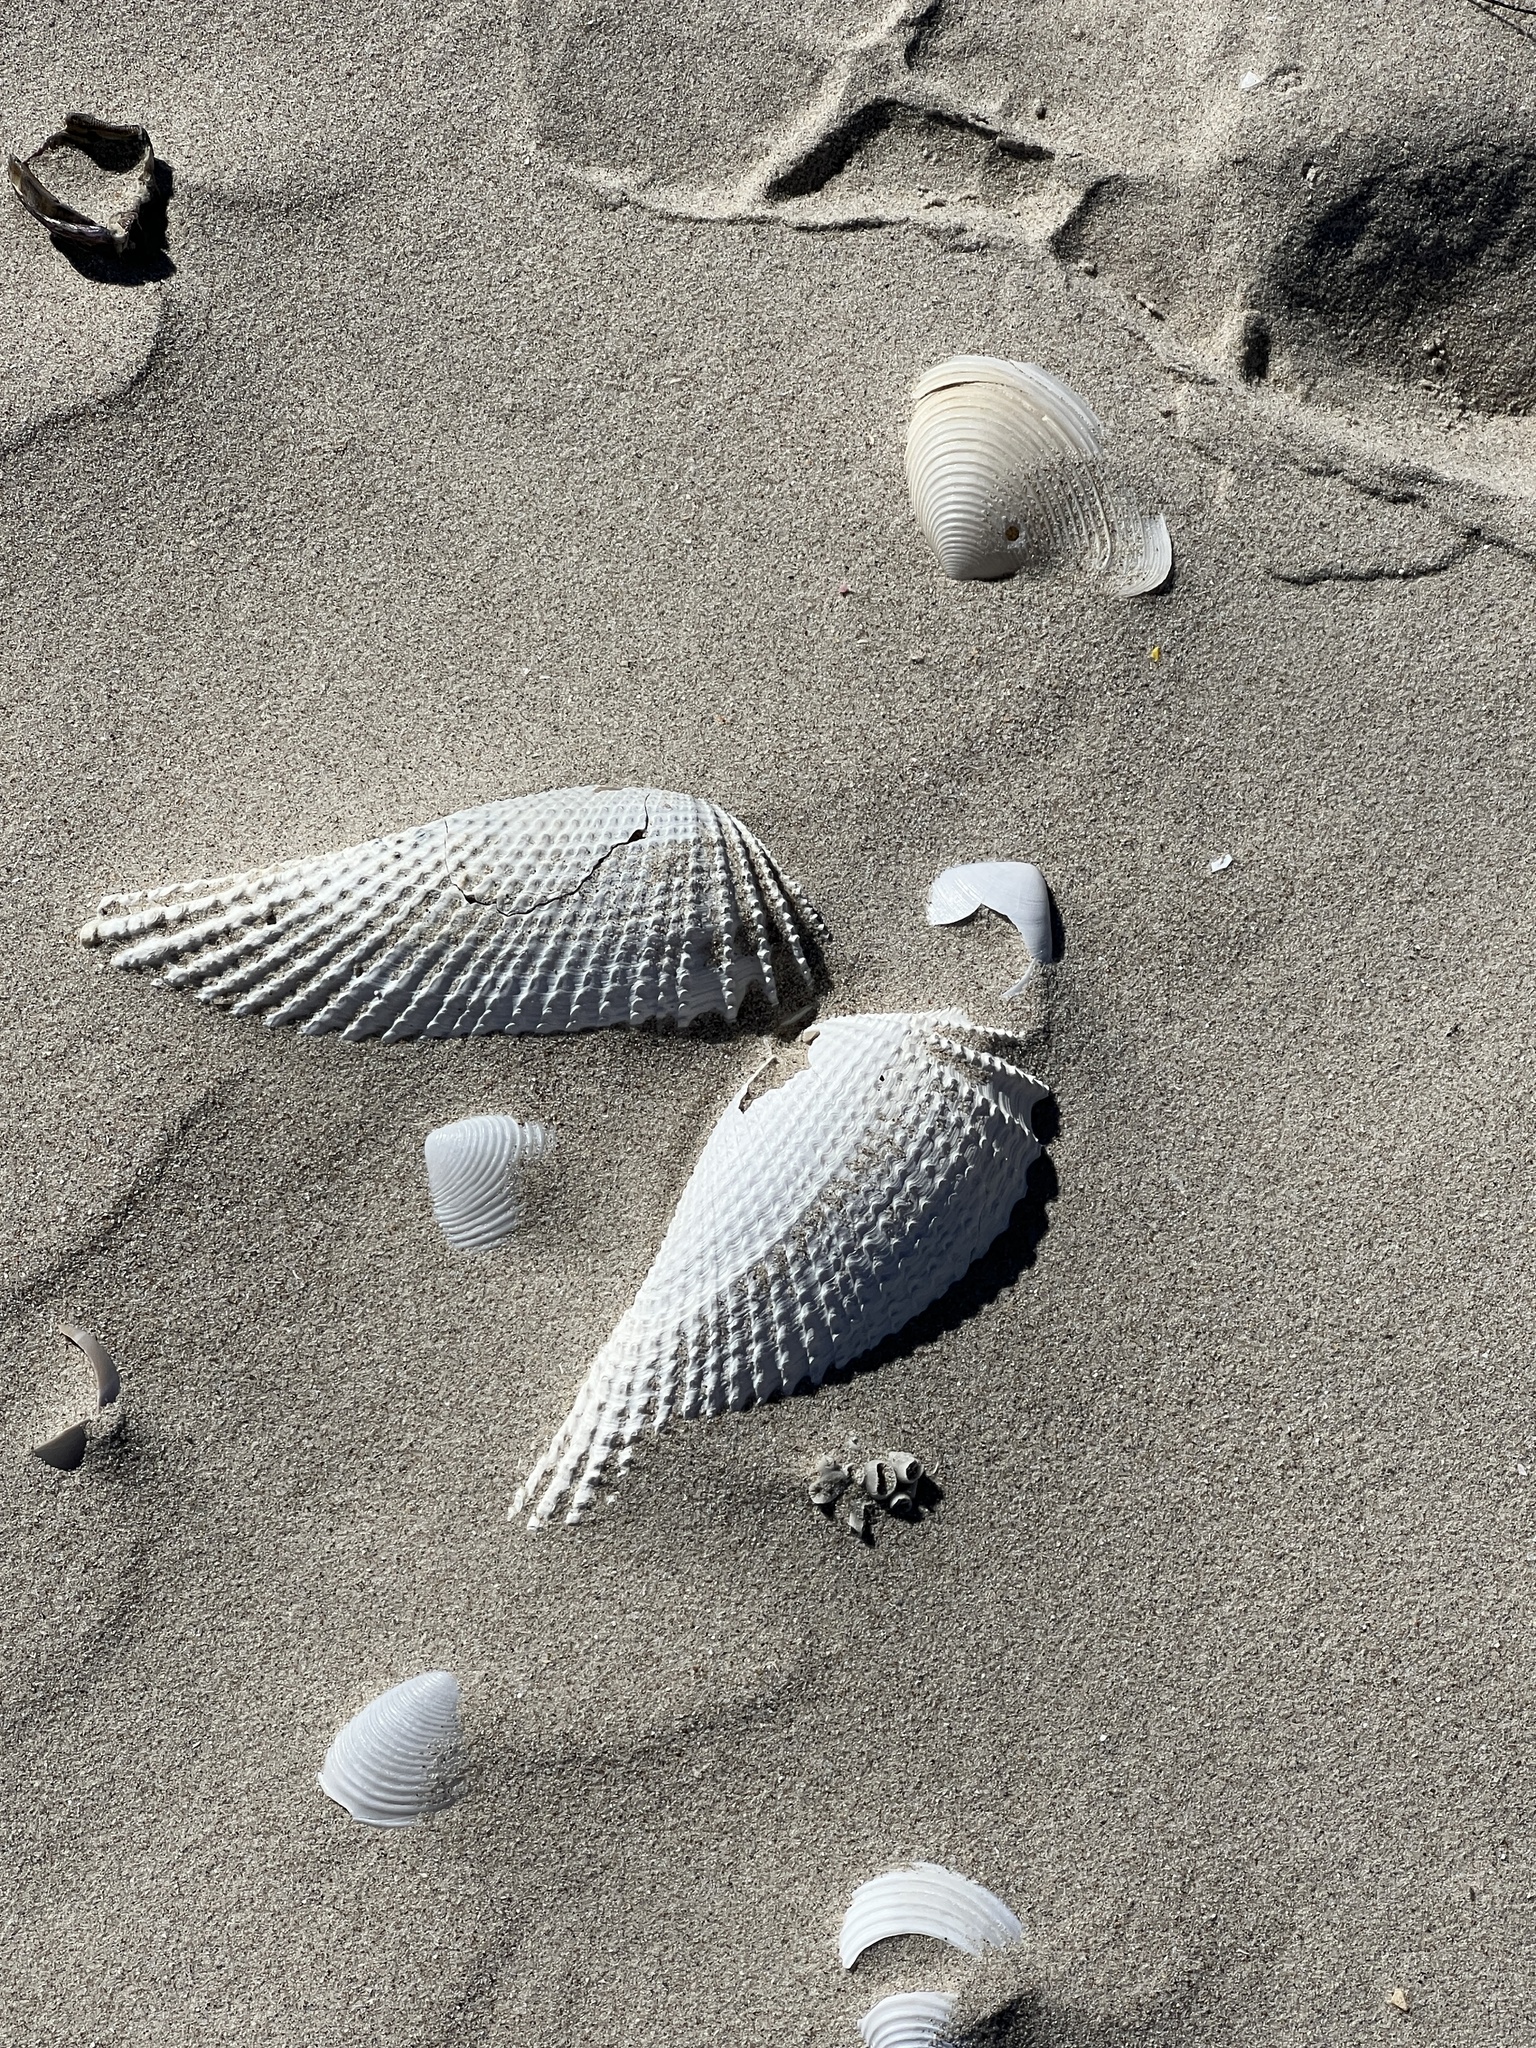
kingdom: Animalia
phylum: Mollusca
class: Bivalvia
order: Myida
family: Pholadidae
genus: Cyrtopleura
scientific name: Cyrtopleura costata
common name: Angel wing
